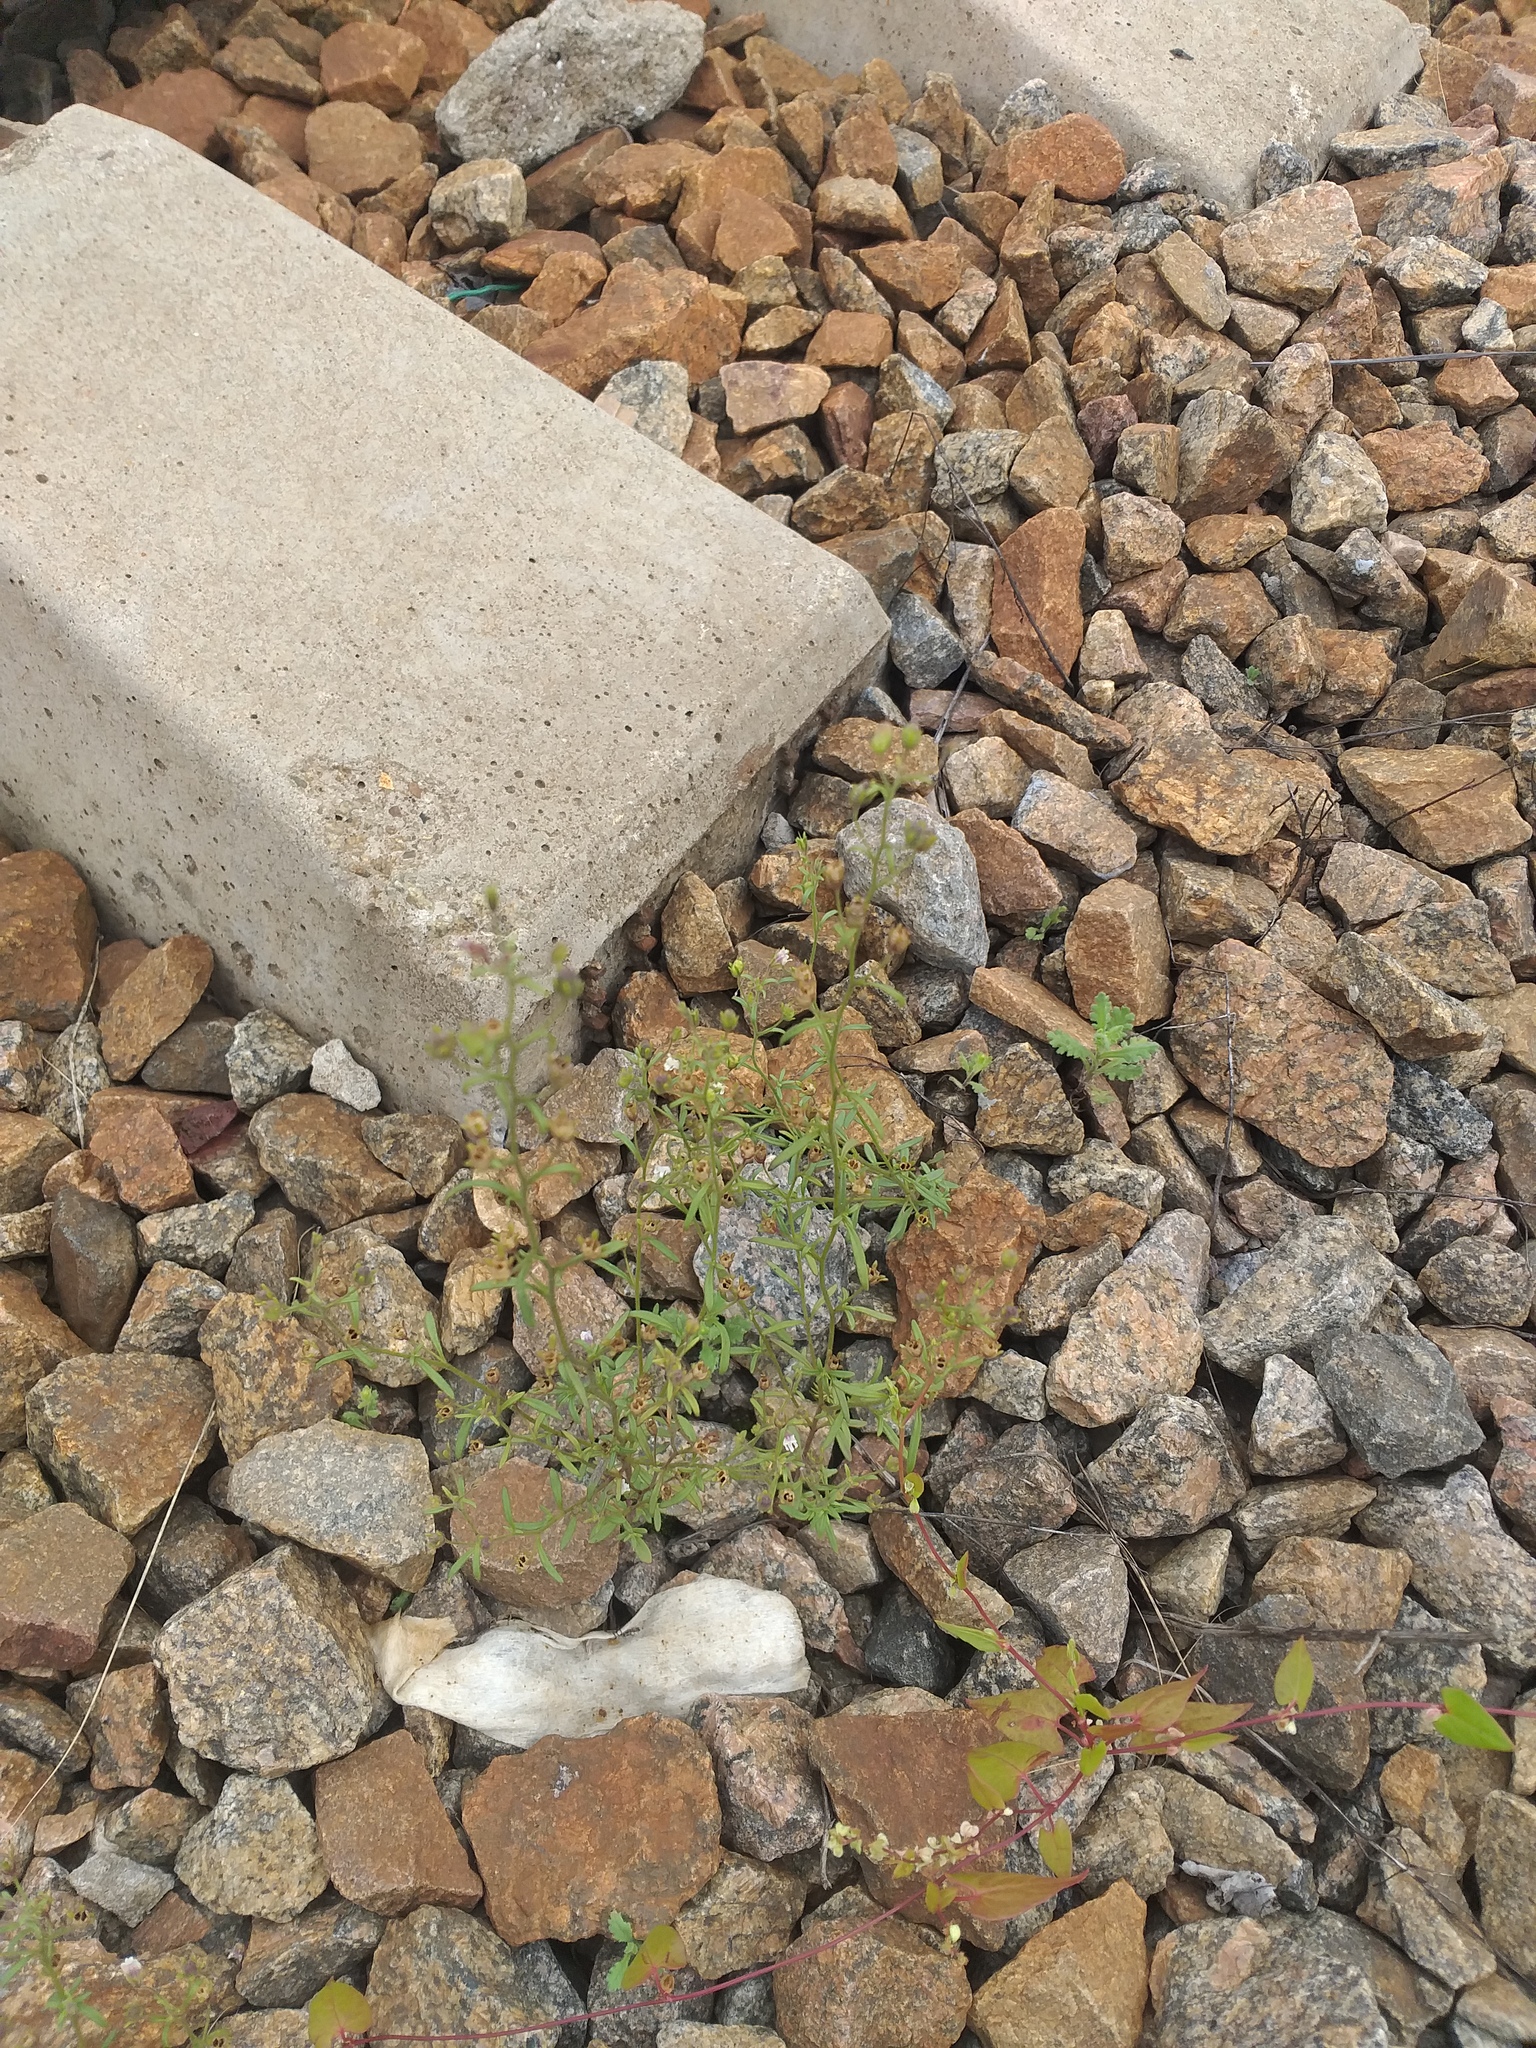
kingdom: Plantae
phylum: Tracheophyta
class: Magnoliopsida
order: Lamiales
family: Plantaginaceae
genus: Chaenorhinum
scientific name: Chaenorhinum minus
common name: Dwarf snapdragon
